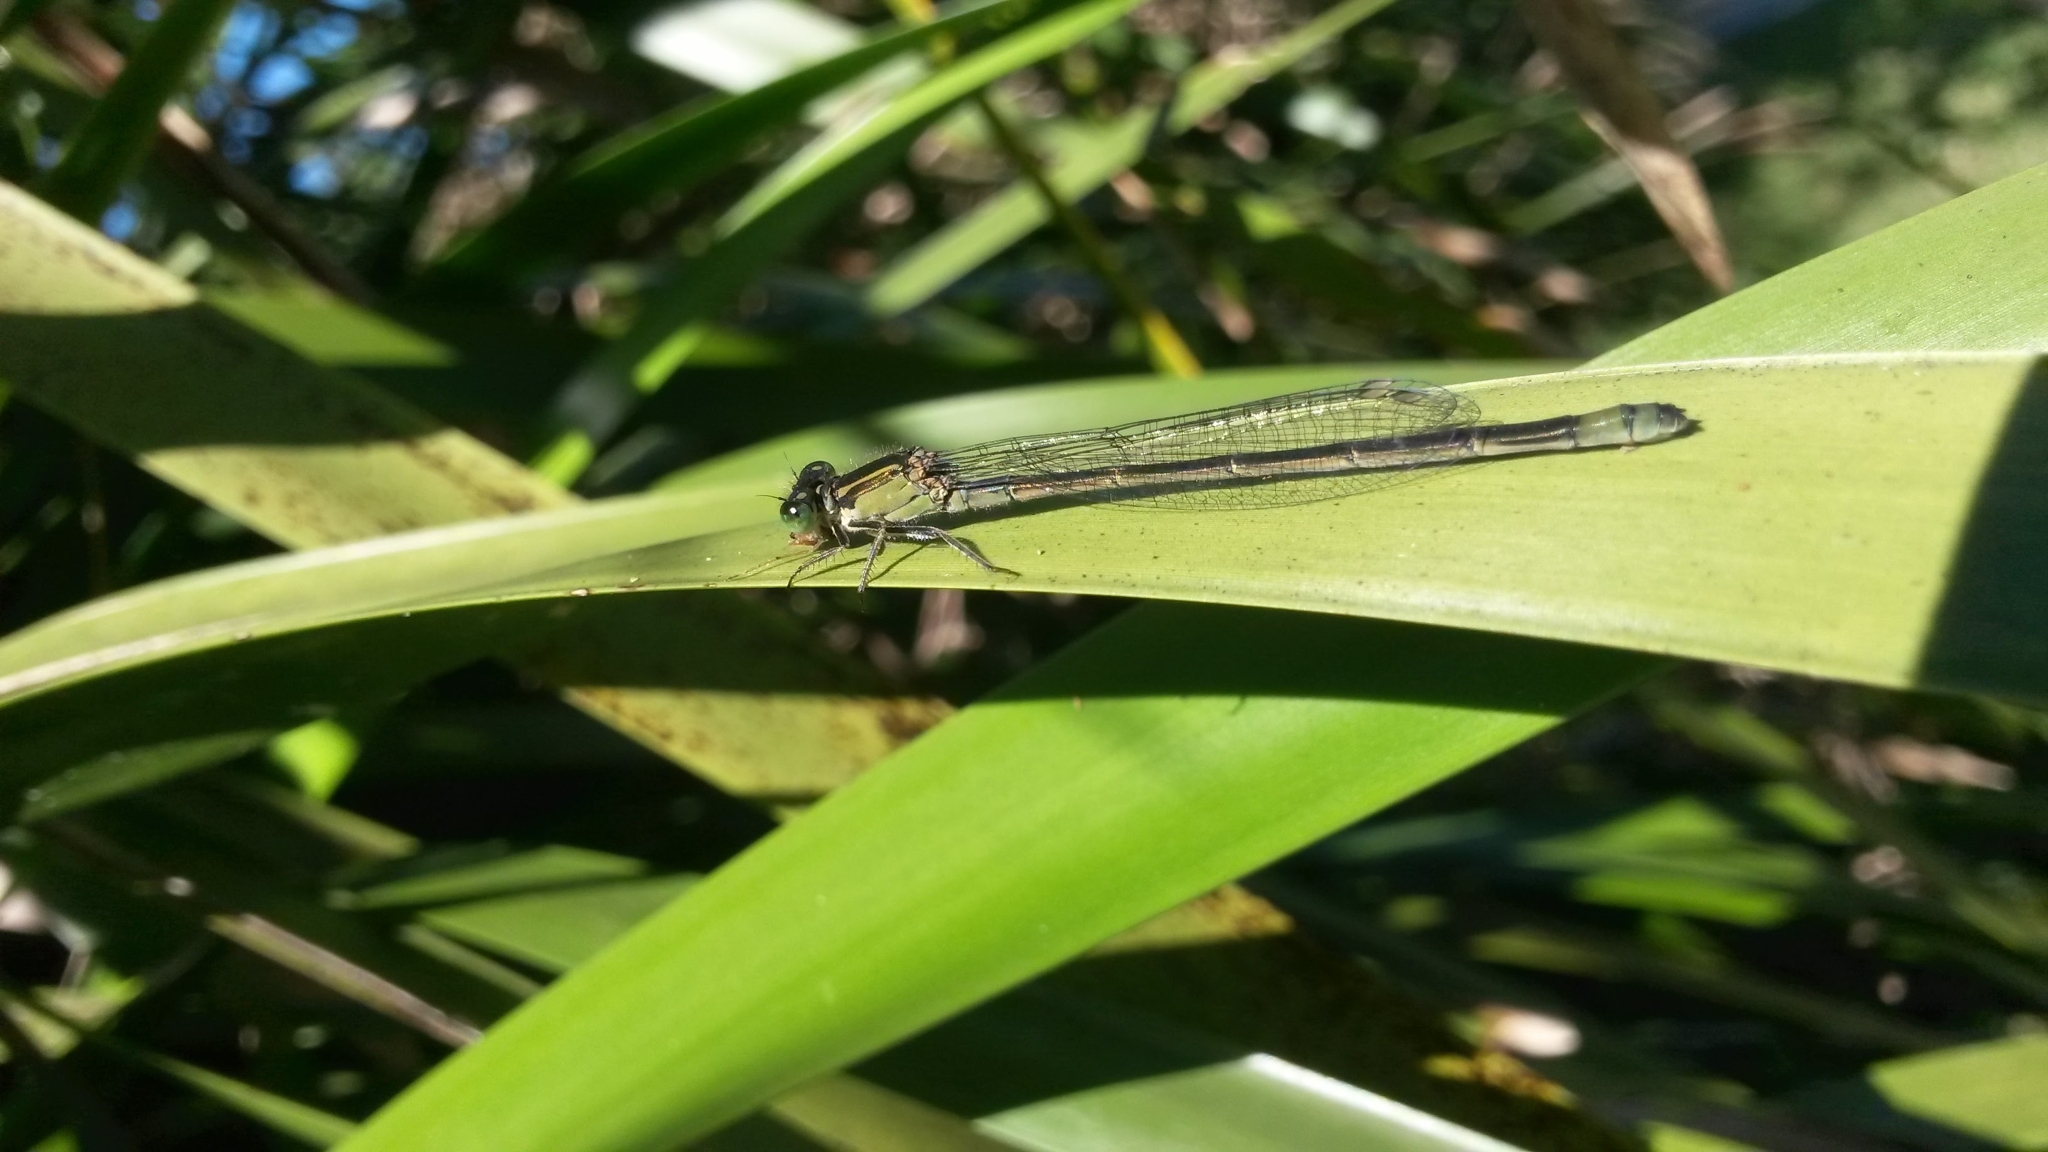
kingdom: Animalia
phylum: Arthropoda
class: Insecta
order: Odonata
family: Coenagrionidae
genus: Ischnura
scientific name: Ischnura heterosticta
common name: Common bluetail
